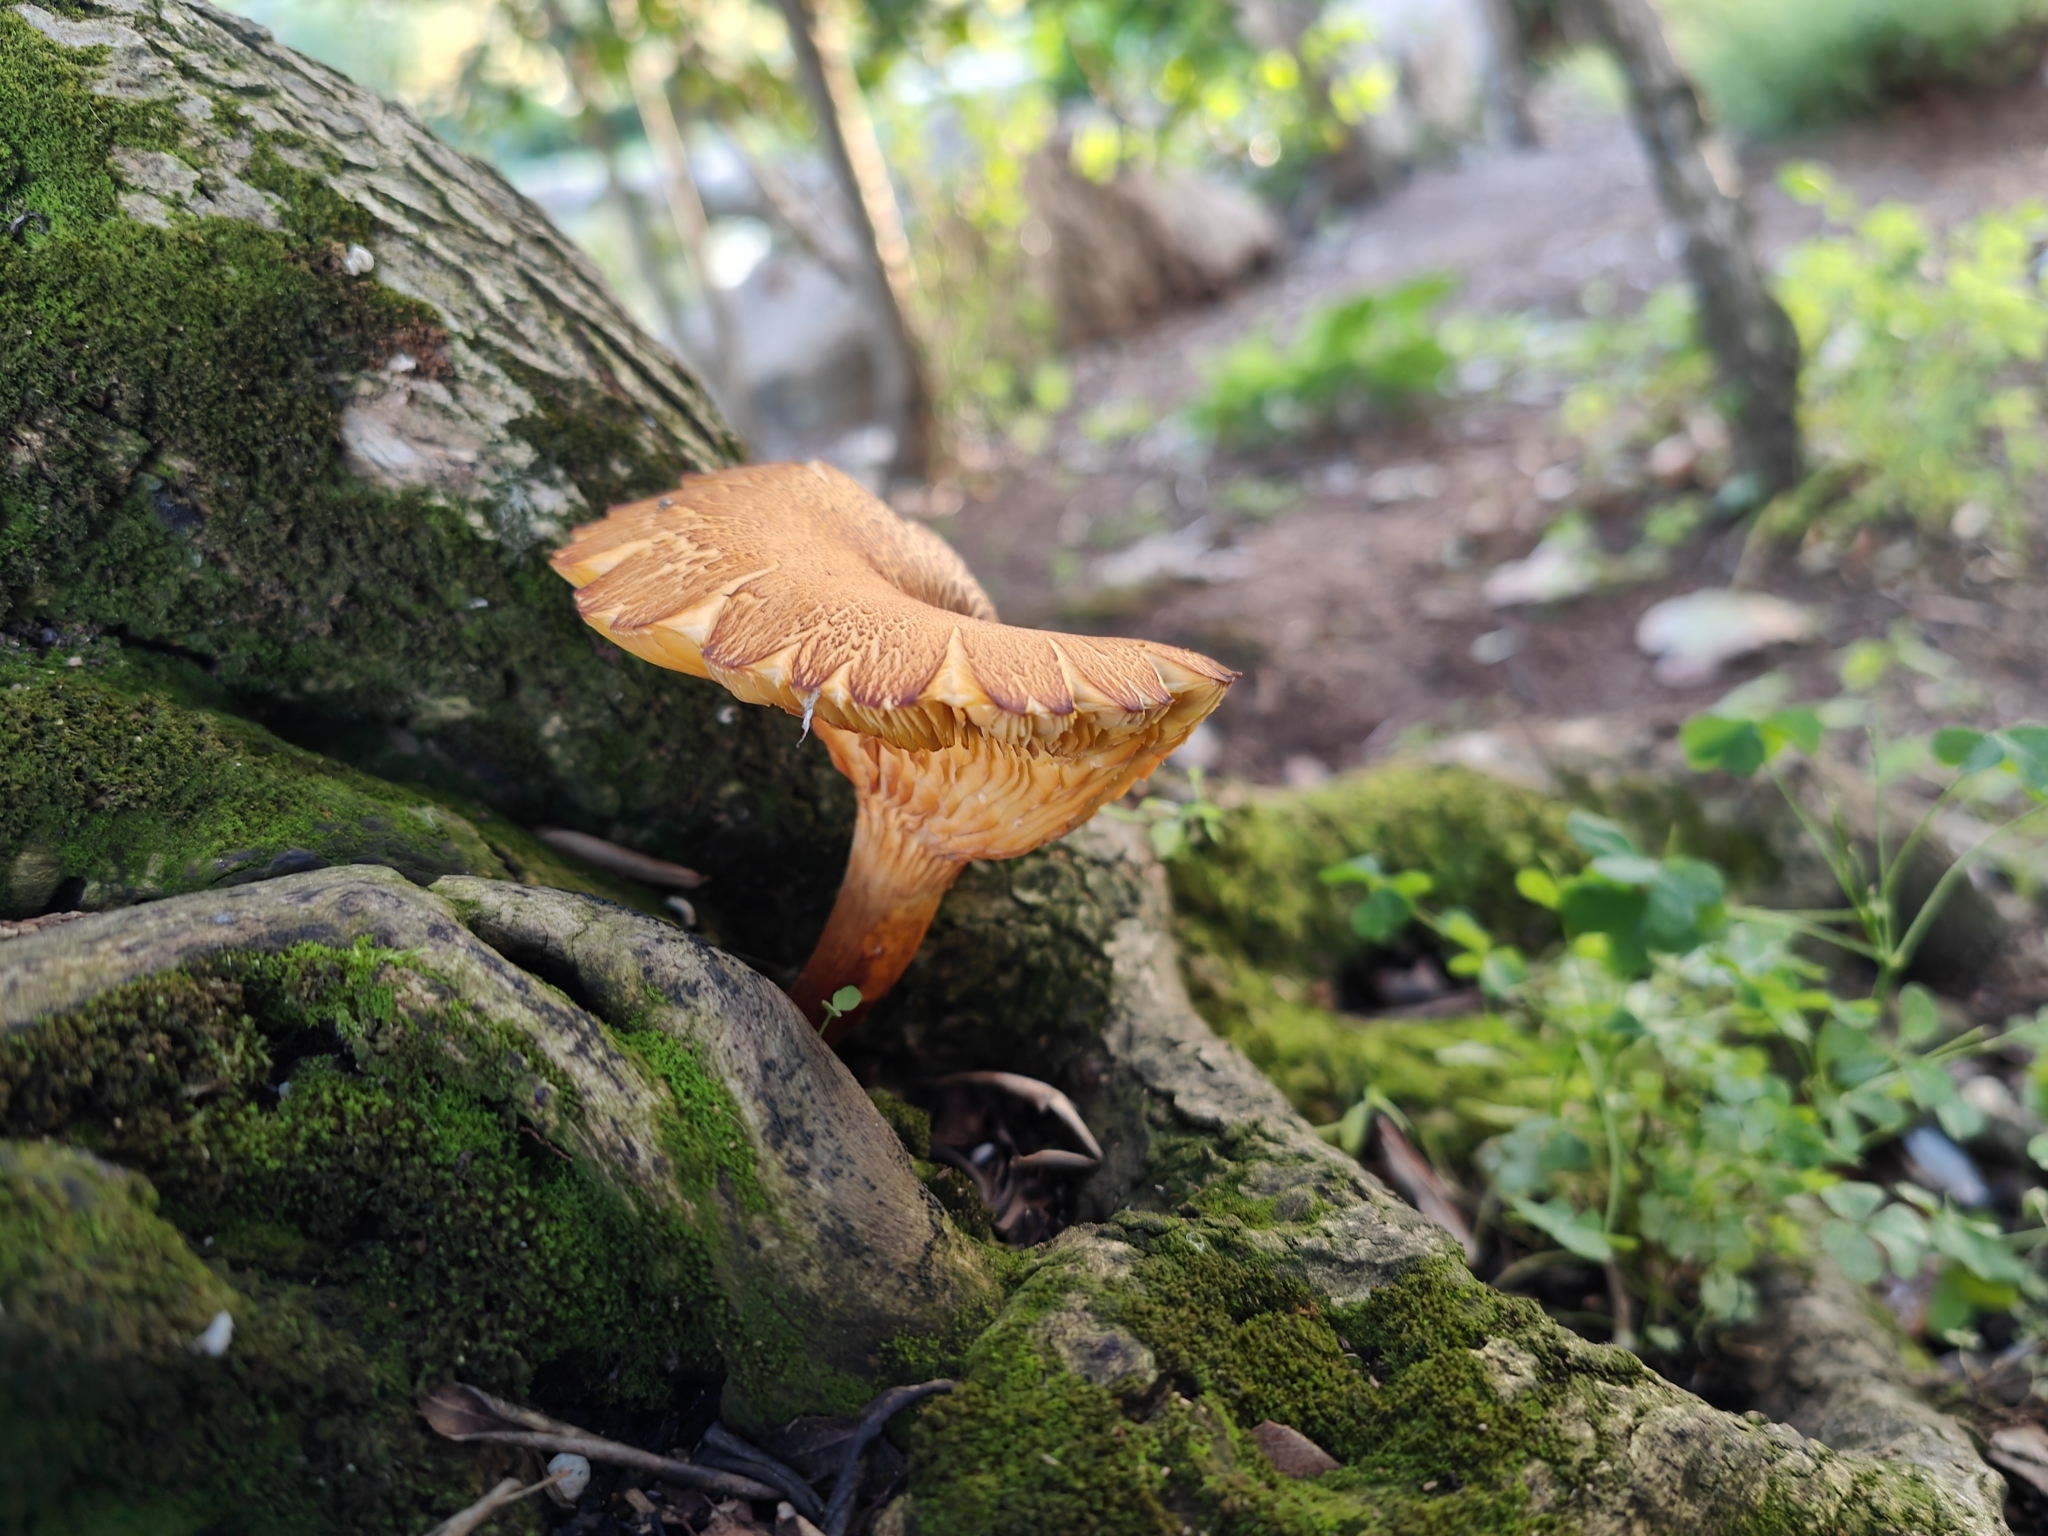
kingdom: Fungi
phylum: Basidiomycota
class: Agaricomycetes
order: Agaricales
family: Omphalotaceae
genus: Omphalotus
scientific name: Omphalotus olearius
